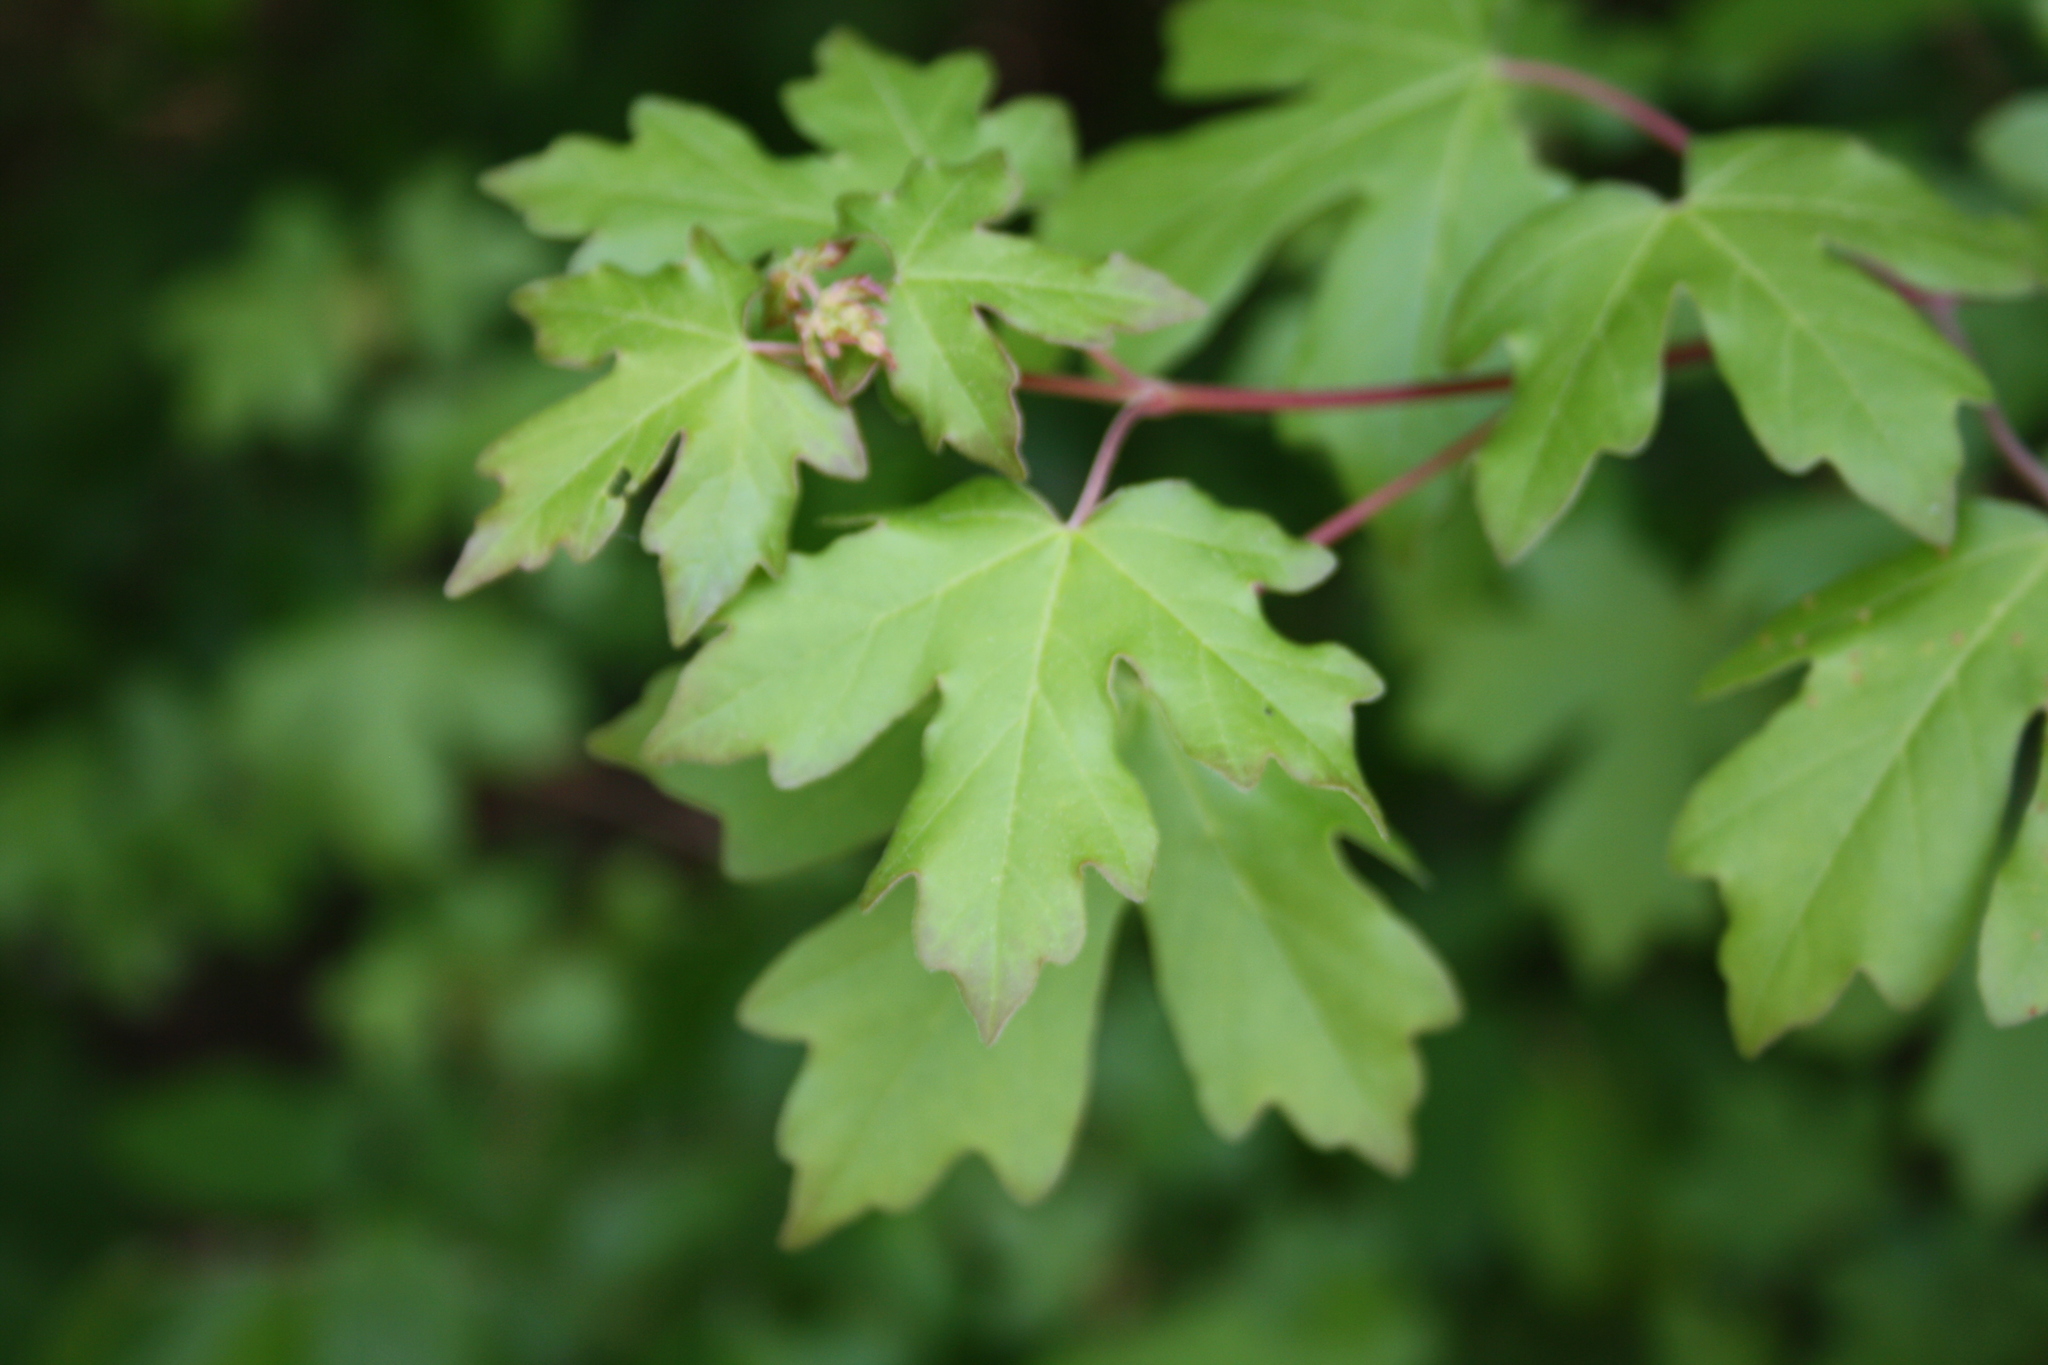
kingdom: Plantae
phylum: Tracheophyta
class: Magnoliopsida
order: Sapindales
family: Sapindaceae
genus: Acer
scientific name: Acer campestre
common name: Field maple
